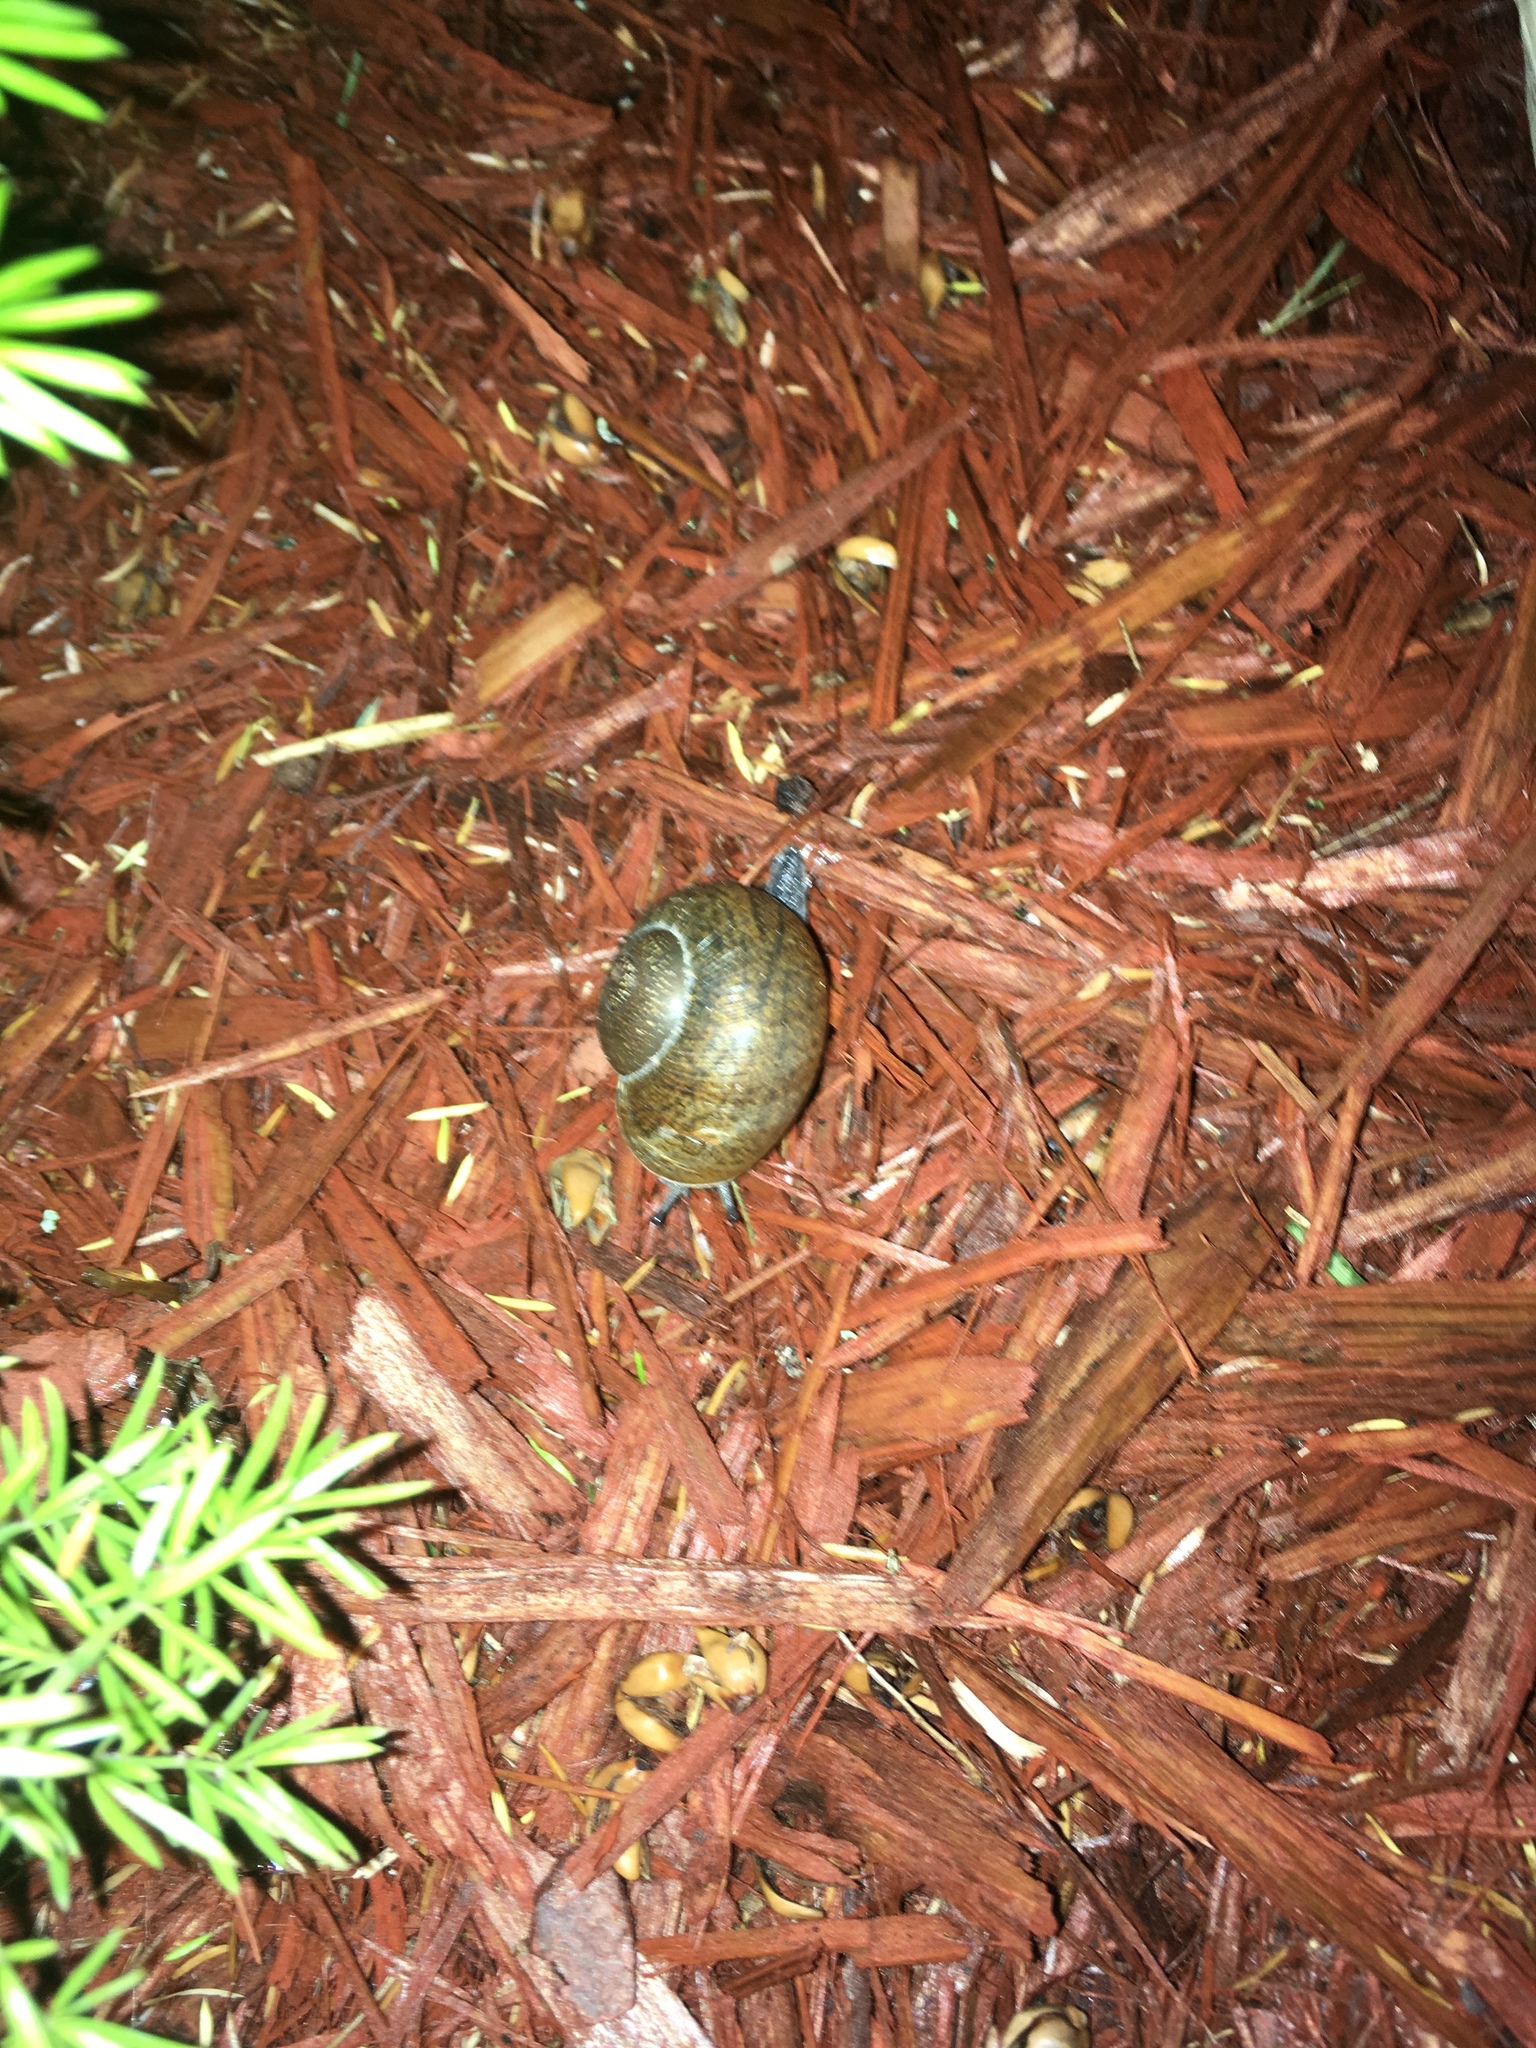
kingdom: Animalia
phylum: Mollusca
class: Gastropoda
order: Stylommatophora
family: Zachrysiidae
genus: Zachrysia
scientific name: Zachrysia provisoria
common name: Garden zachrysia
